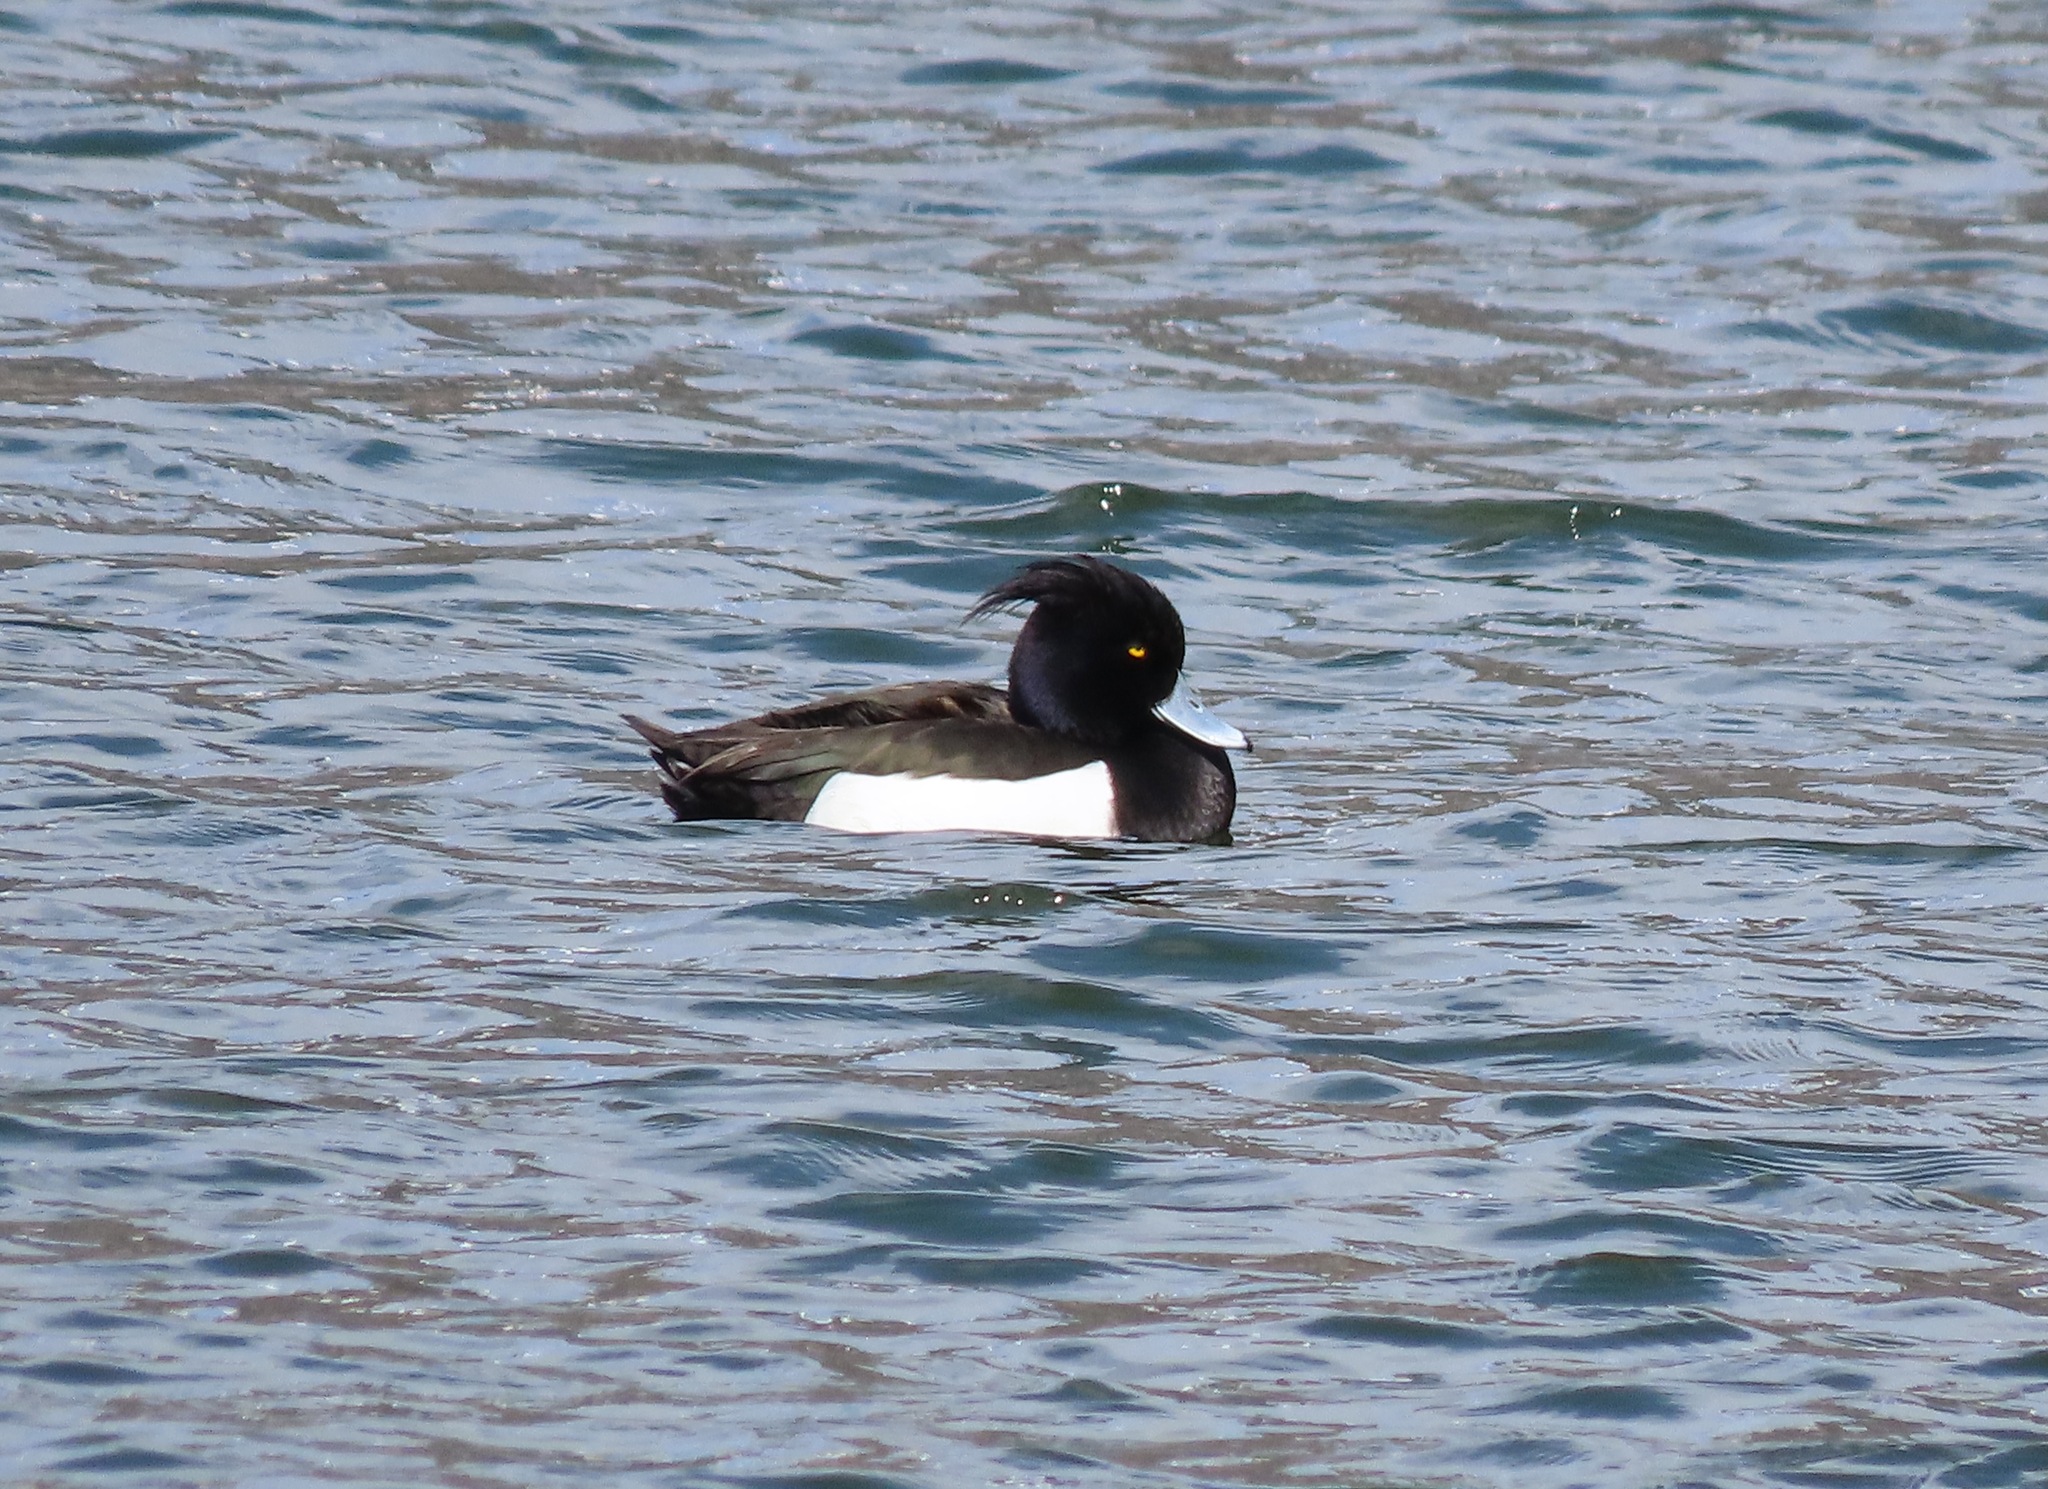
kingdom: Animalia
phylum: Chordata
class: Aves
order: Anseriformes
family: Anatidae
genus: Aythya
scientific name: Aythya fuligula
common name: Tufted duck
